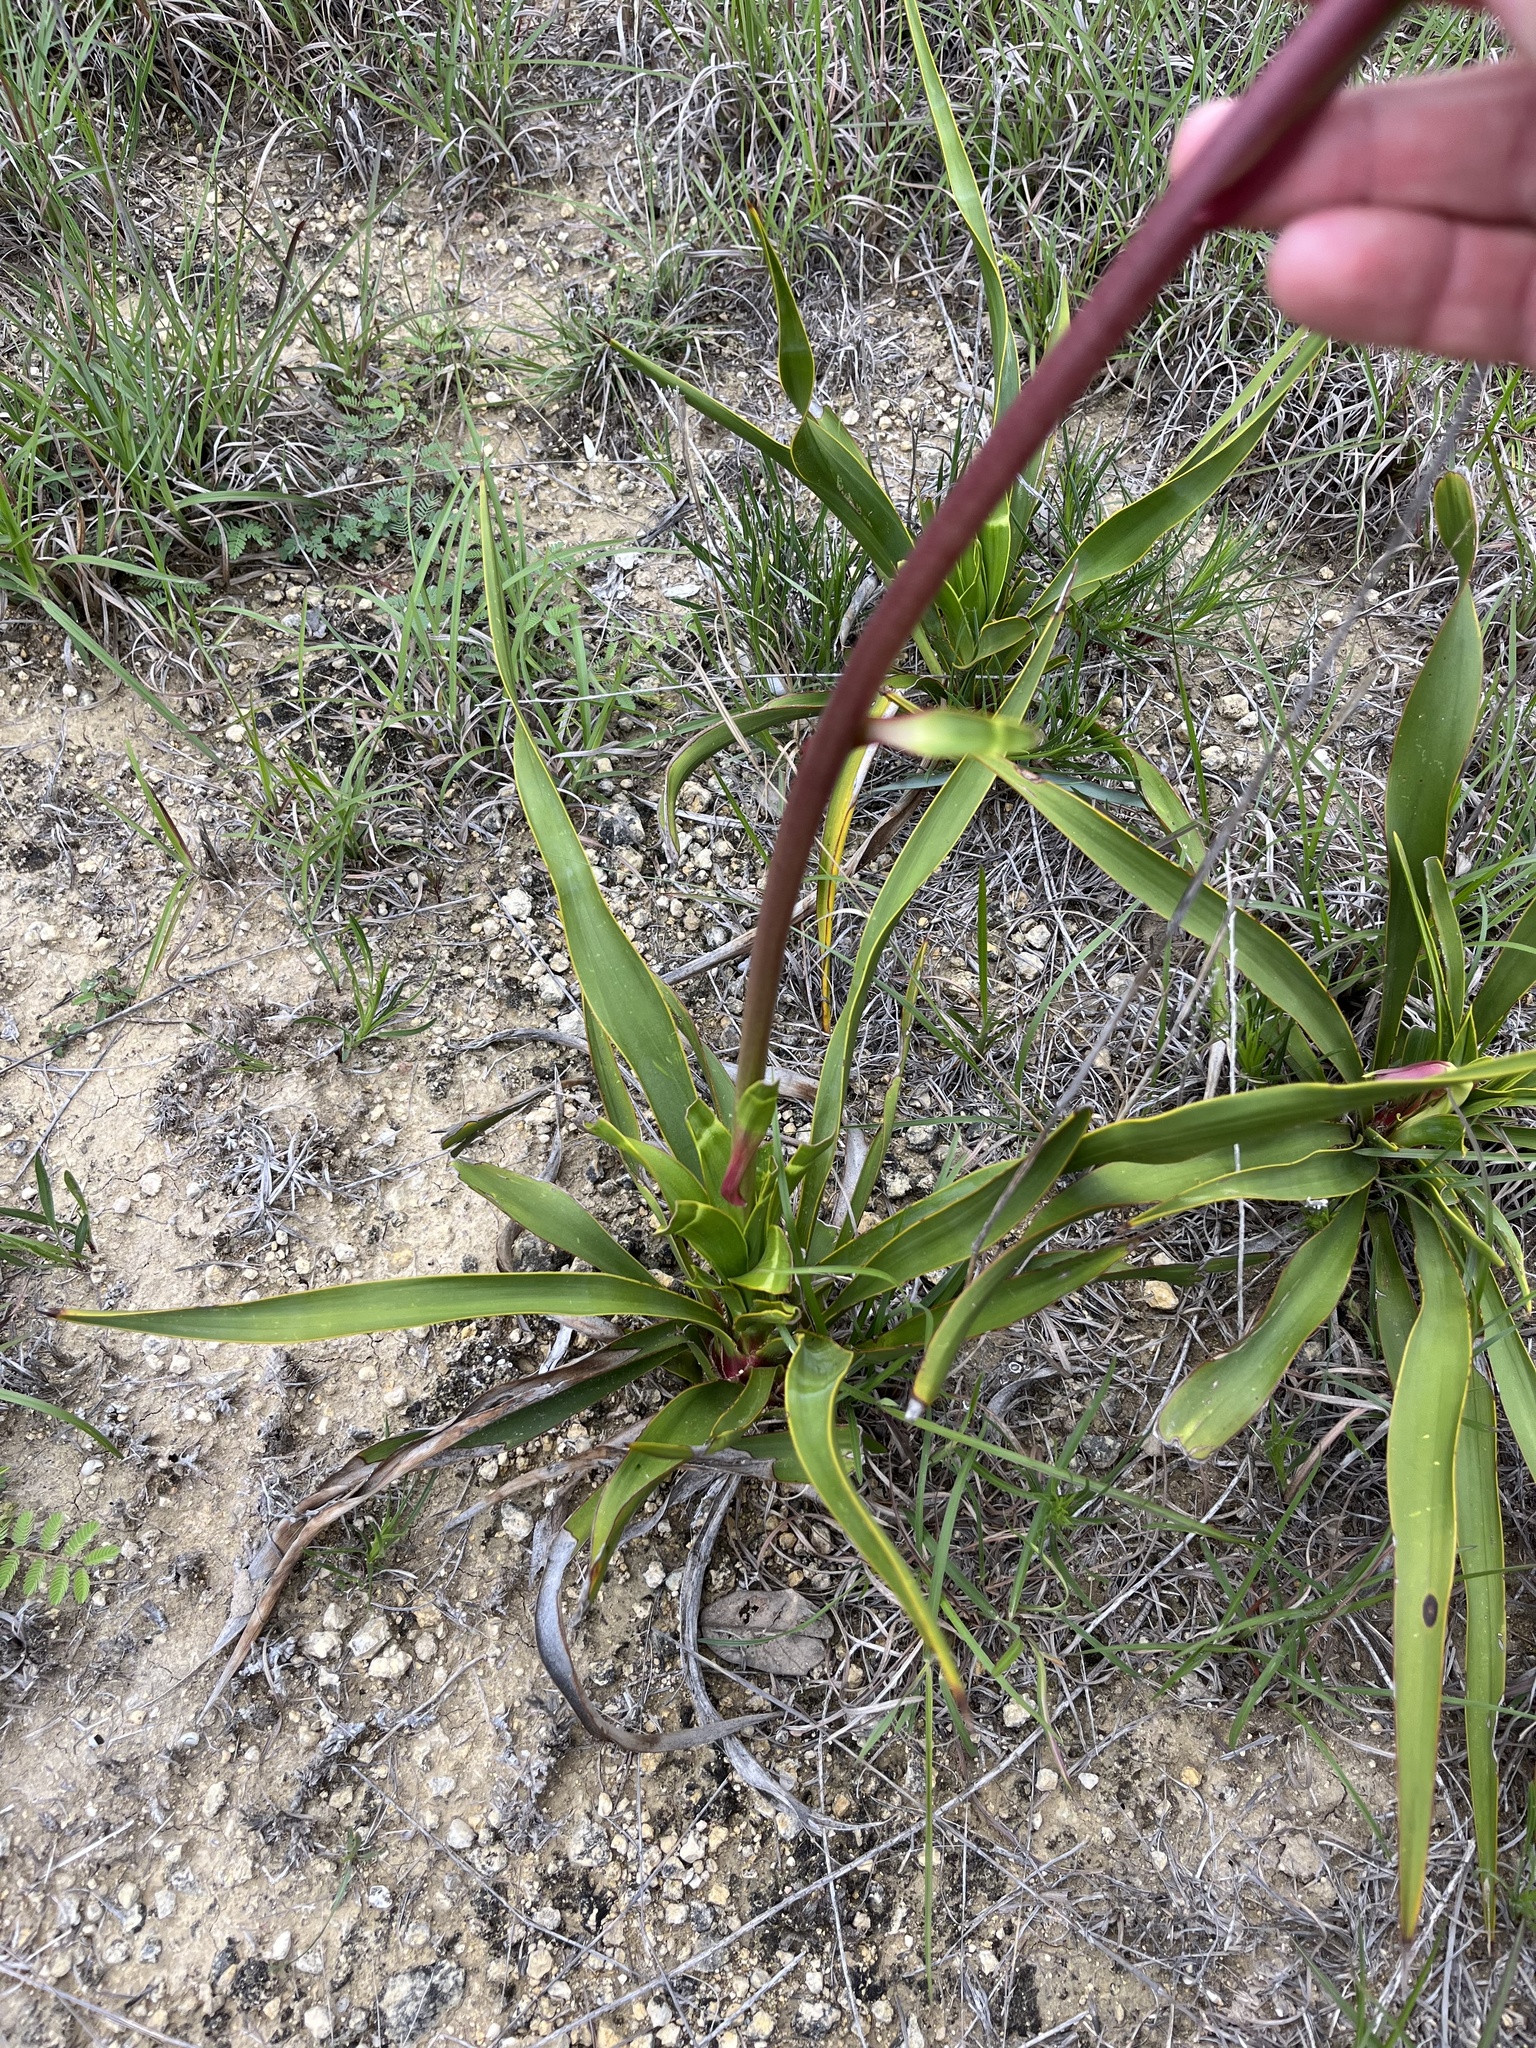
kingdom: Plantae
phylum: Tracheophyta
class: Liliopsida
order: Asparagales
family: Asparagaceae
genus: Yucca
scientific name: Yucca rupicola
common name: Twisted-leaf spanish-dagger
